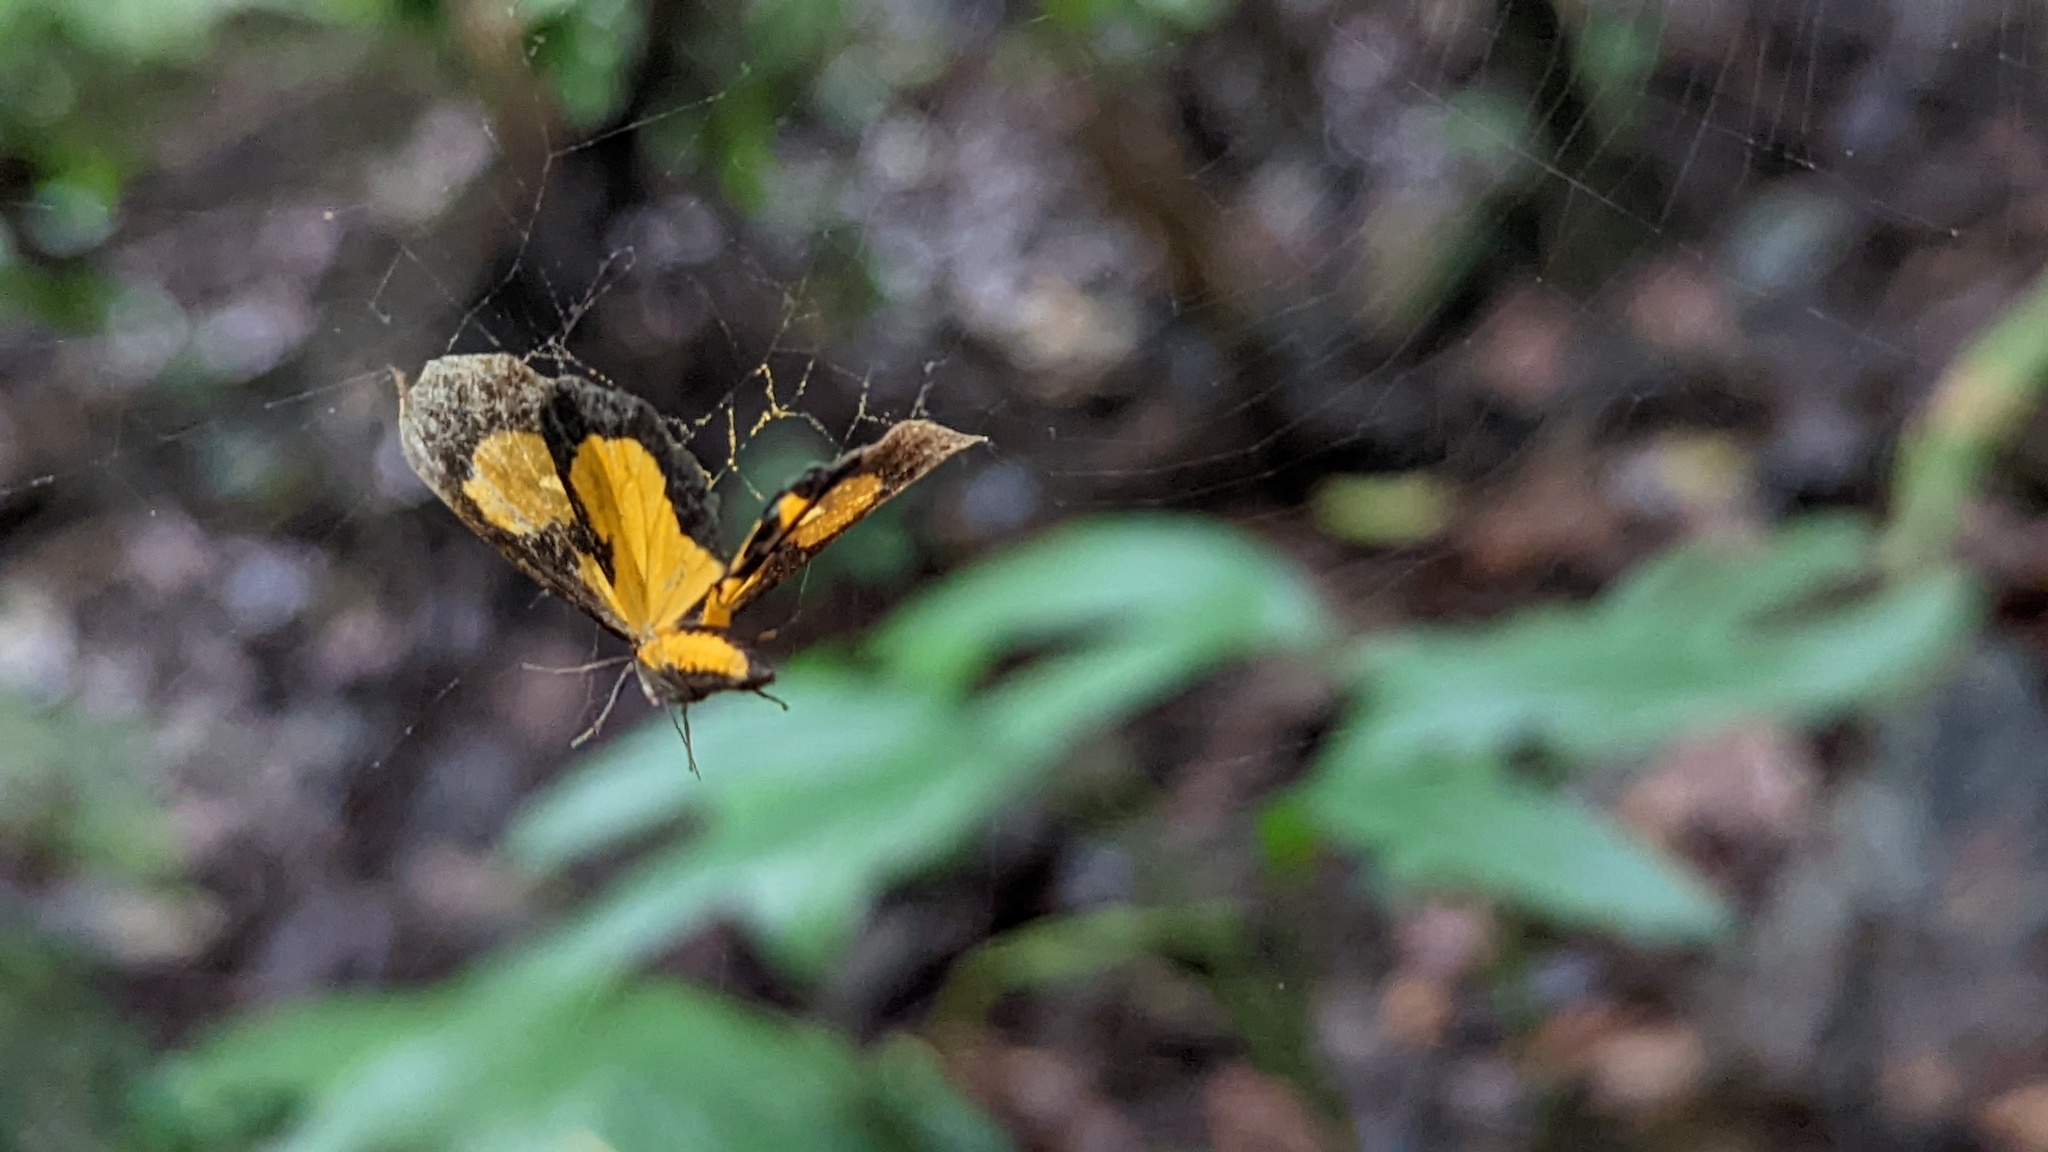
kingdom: Animalia
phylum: Arthropoda
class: Insecta
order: Lepidoptera
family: Erebidae
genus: Virbia
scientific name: Virbia thersites
